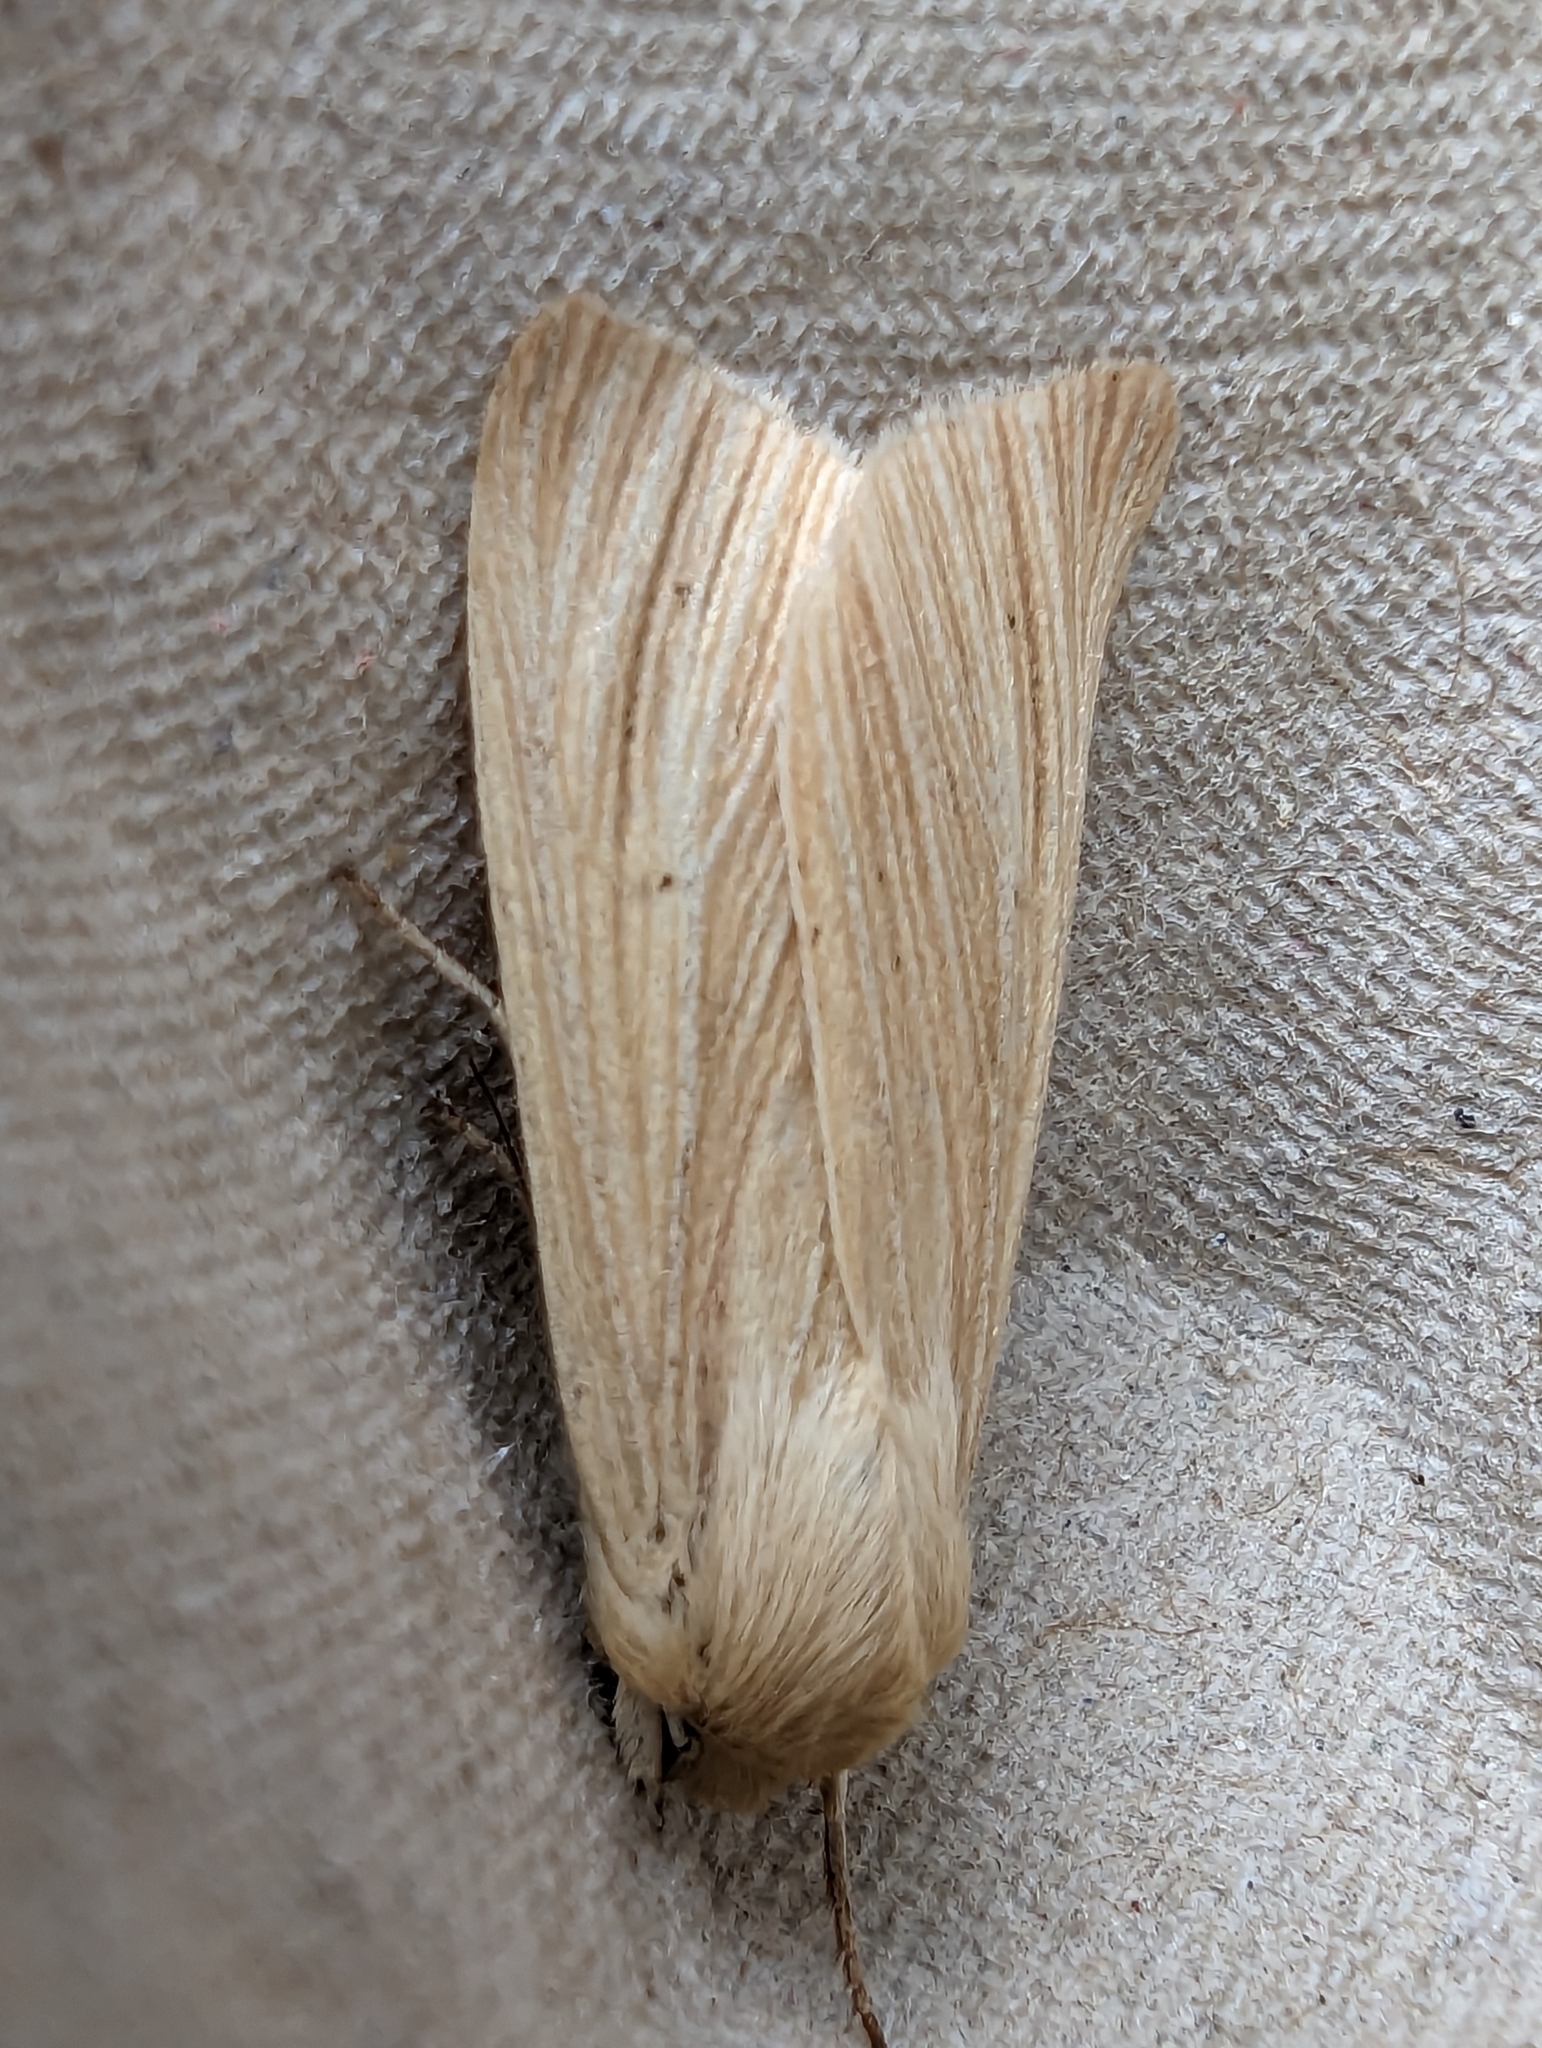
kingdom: Animalia
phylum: Arthropoda
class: Insecta
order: Lepidoptera
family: Noctuidae
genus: Mythimna
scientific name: Mythimna pallens
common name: Common wainscot
